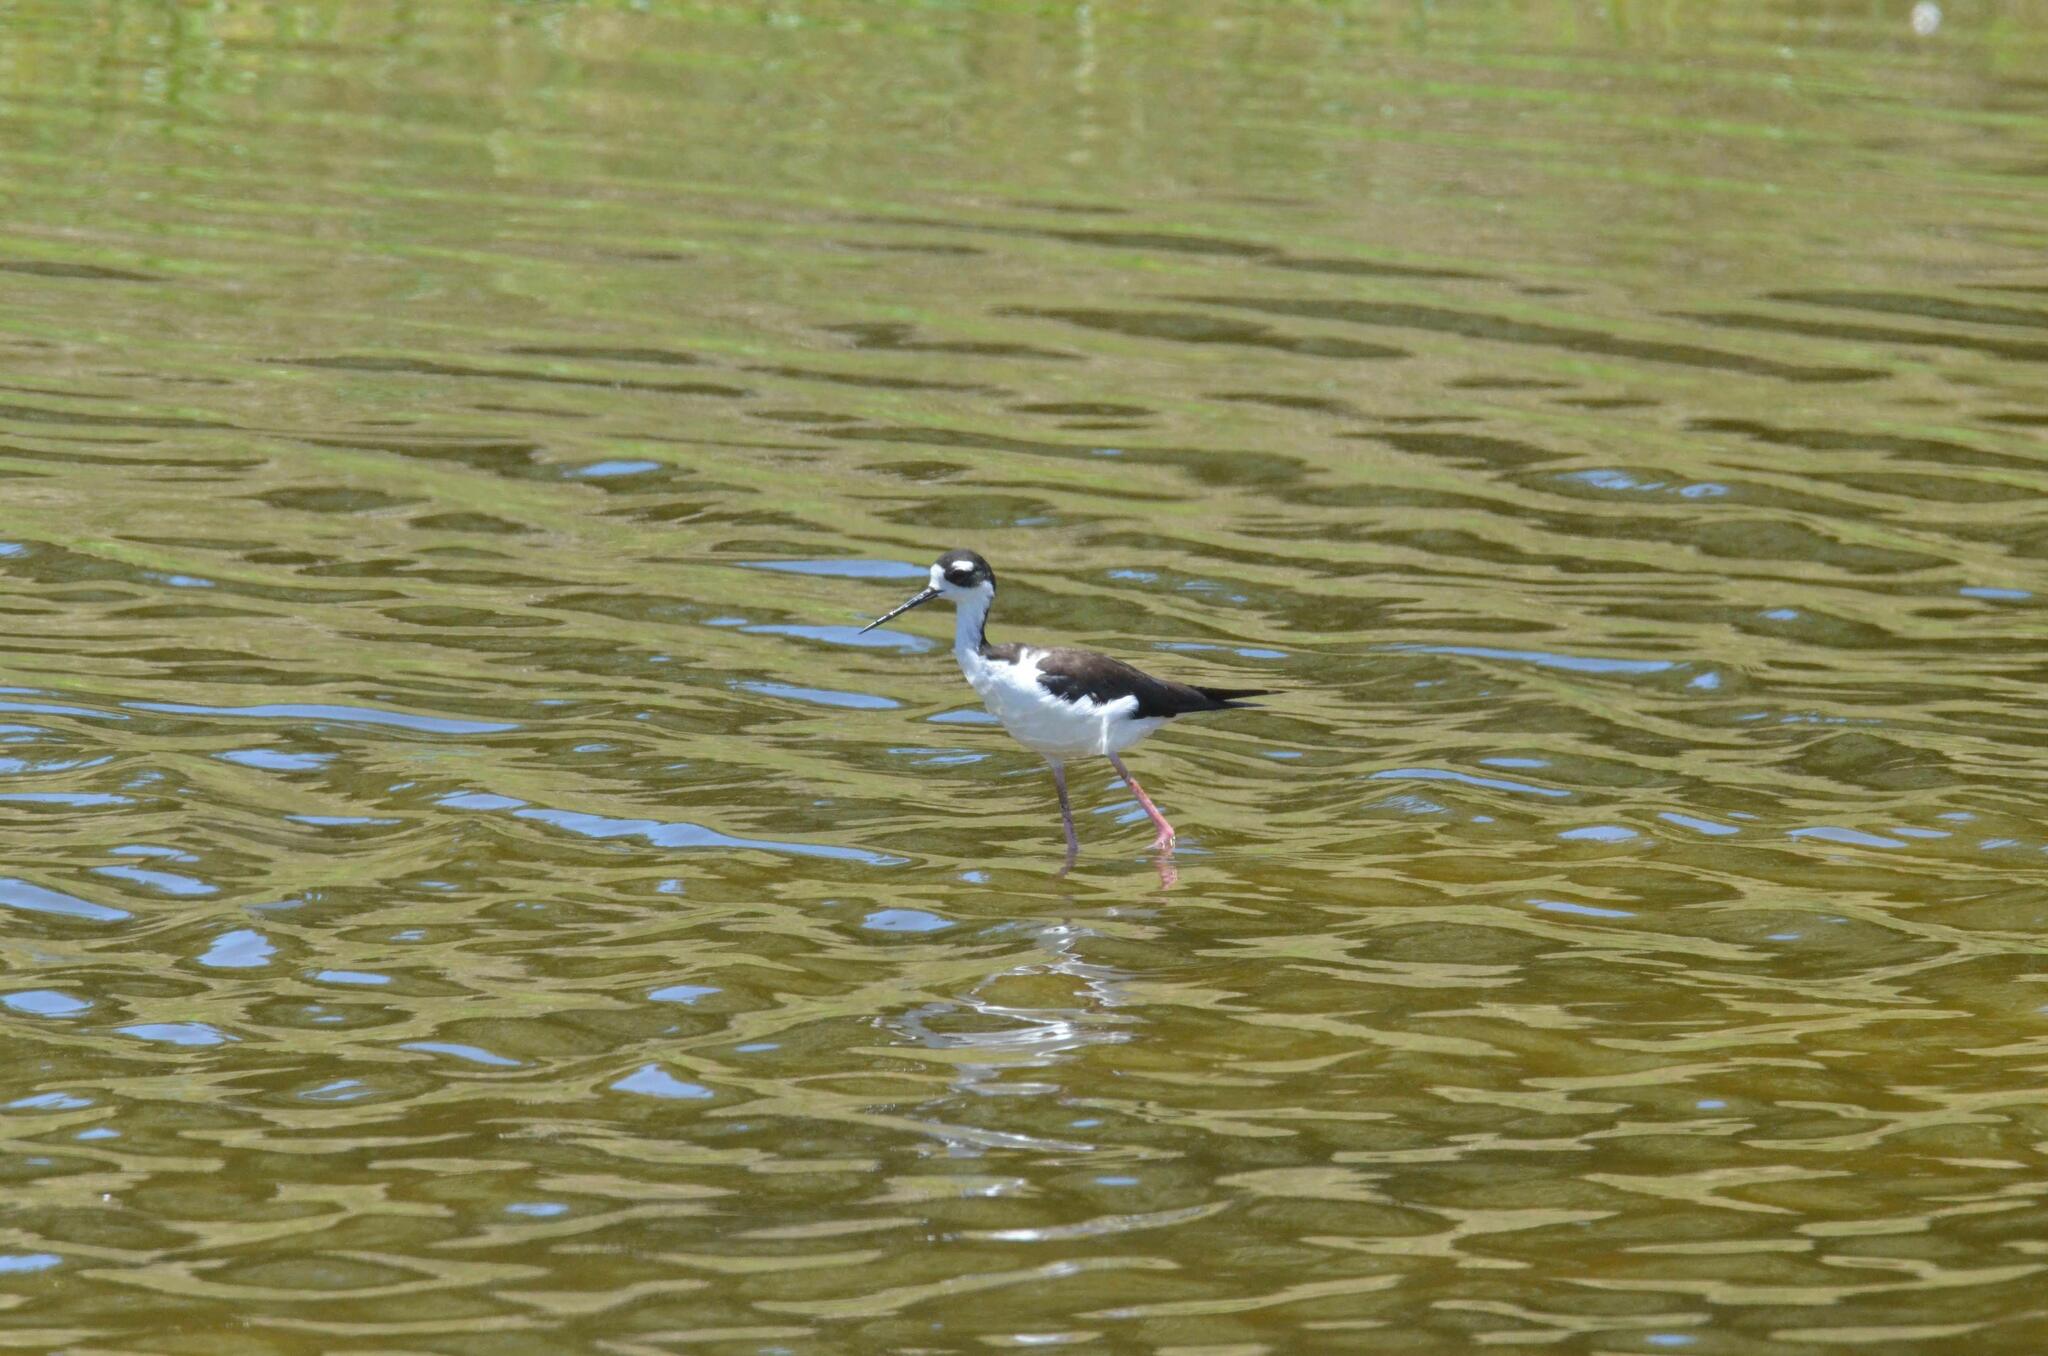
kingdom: Animalia
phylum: Chordata
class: Aves
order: Charadriiformes
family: Recurvirostridae
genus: Himantopus
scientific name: Himantopus mexicanus
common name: Black-necked stilt
